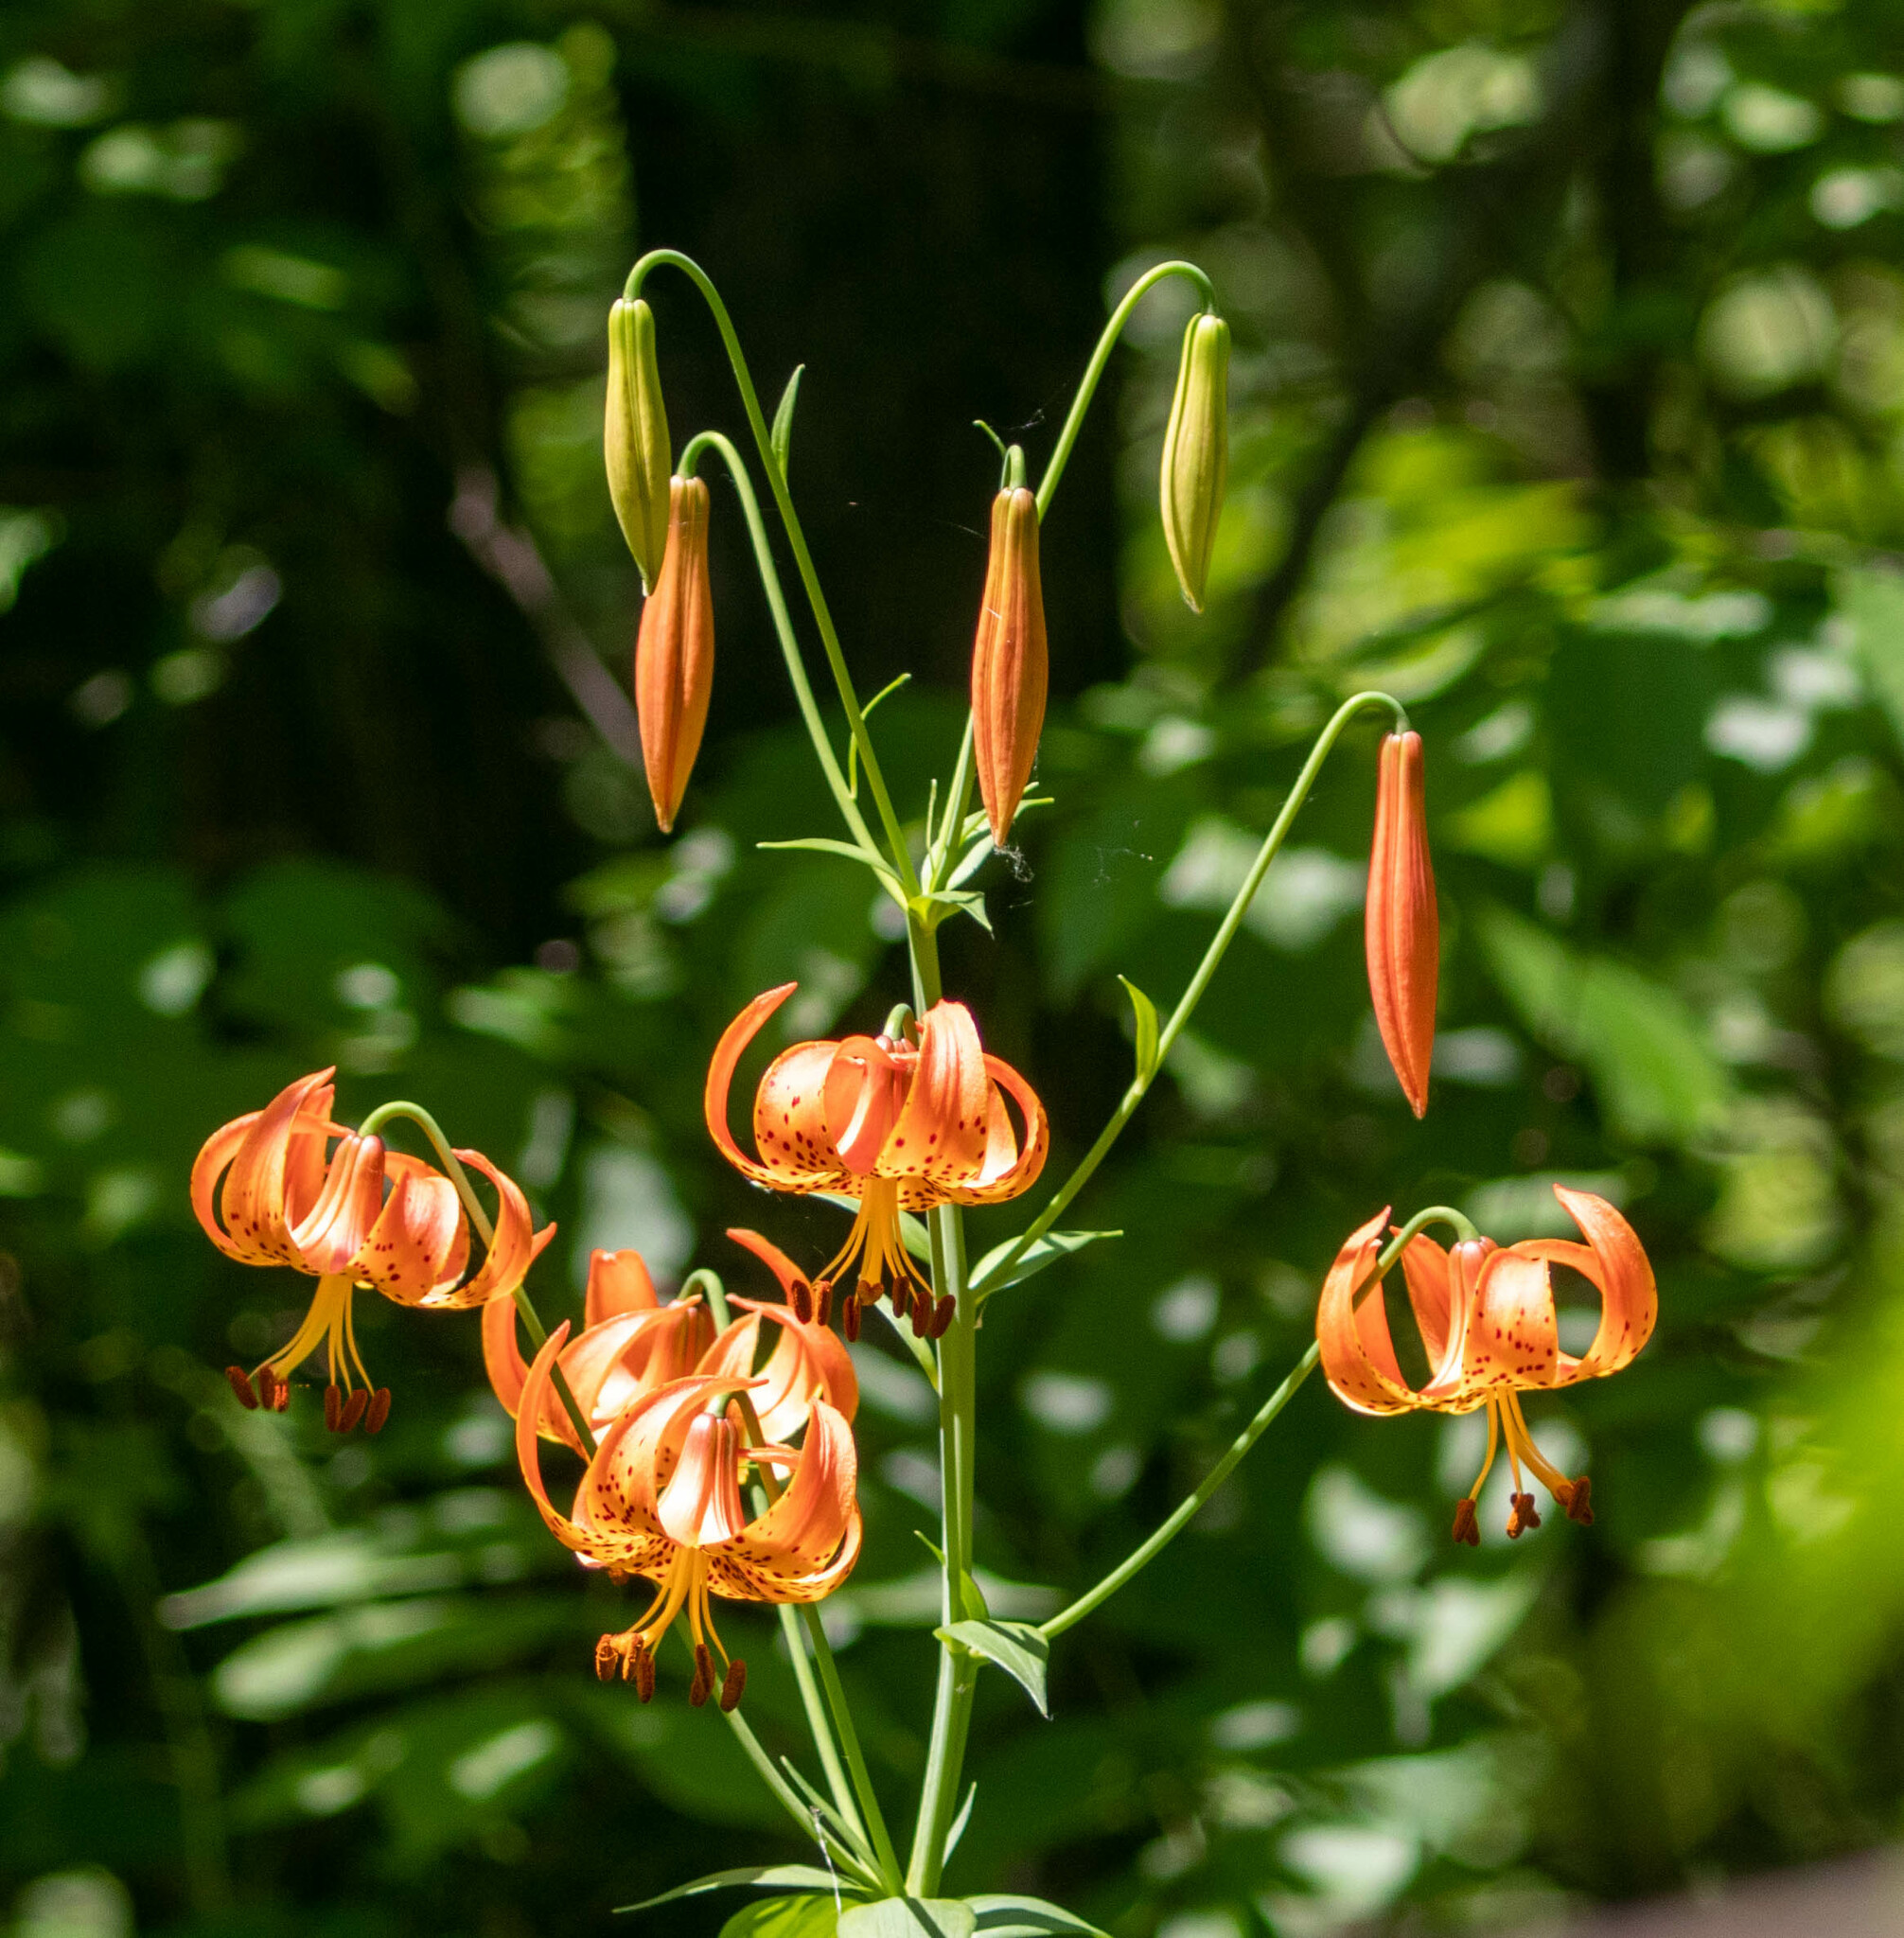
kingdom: Plantae
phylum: Tracheophyta
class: Liliopsida
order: Liliales
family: Liliaceae
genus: Lilium
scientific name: Lilium michiganense
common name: Michigan lily
